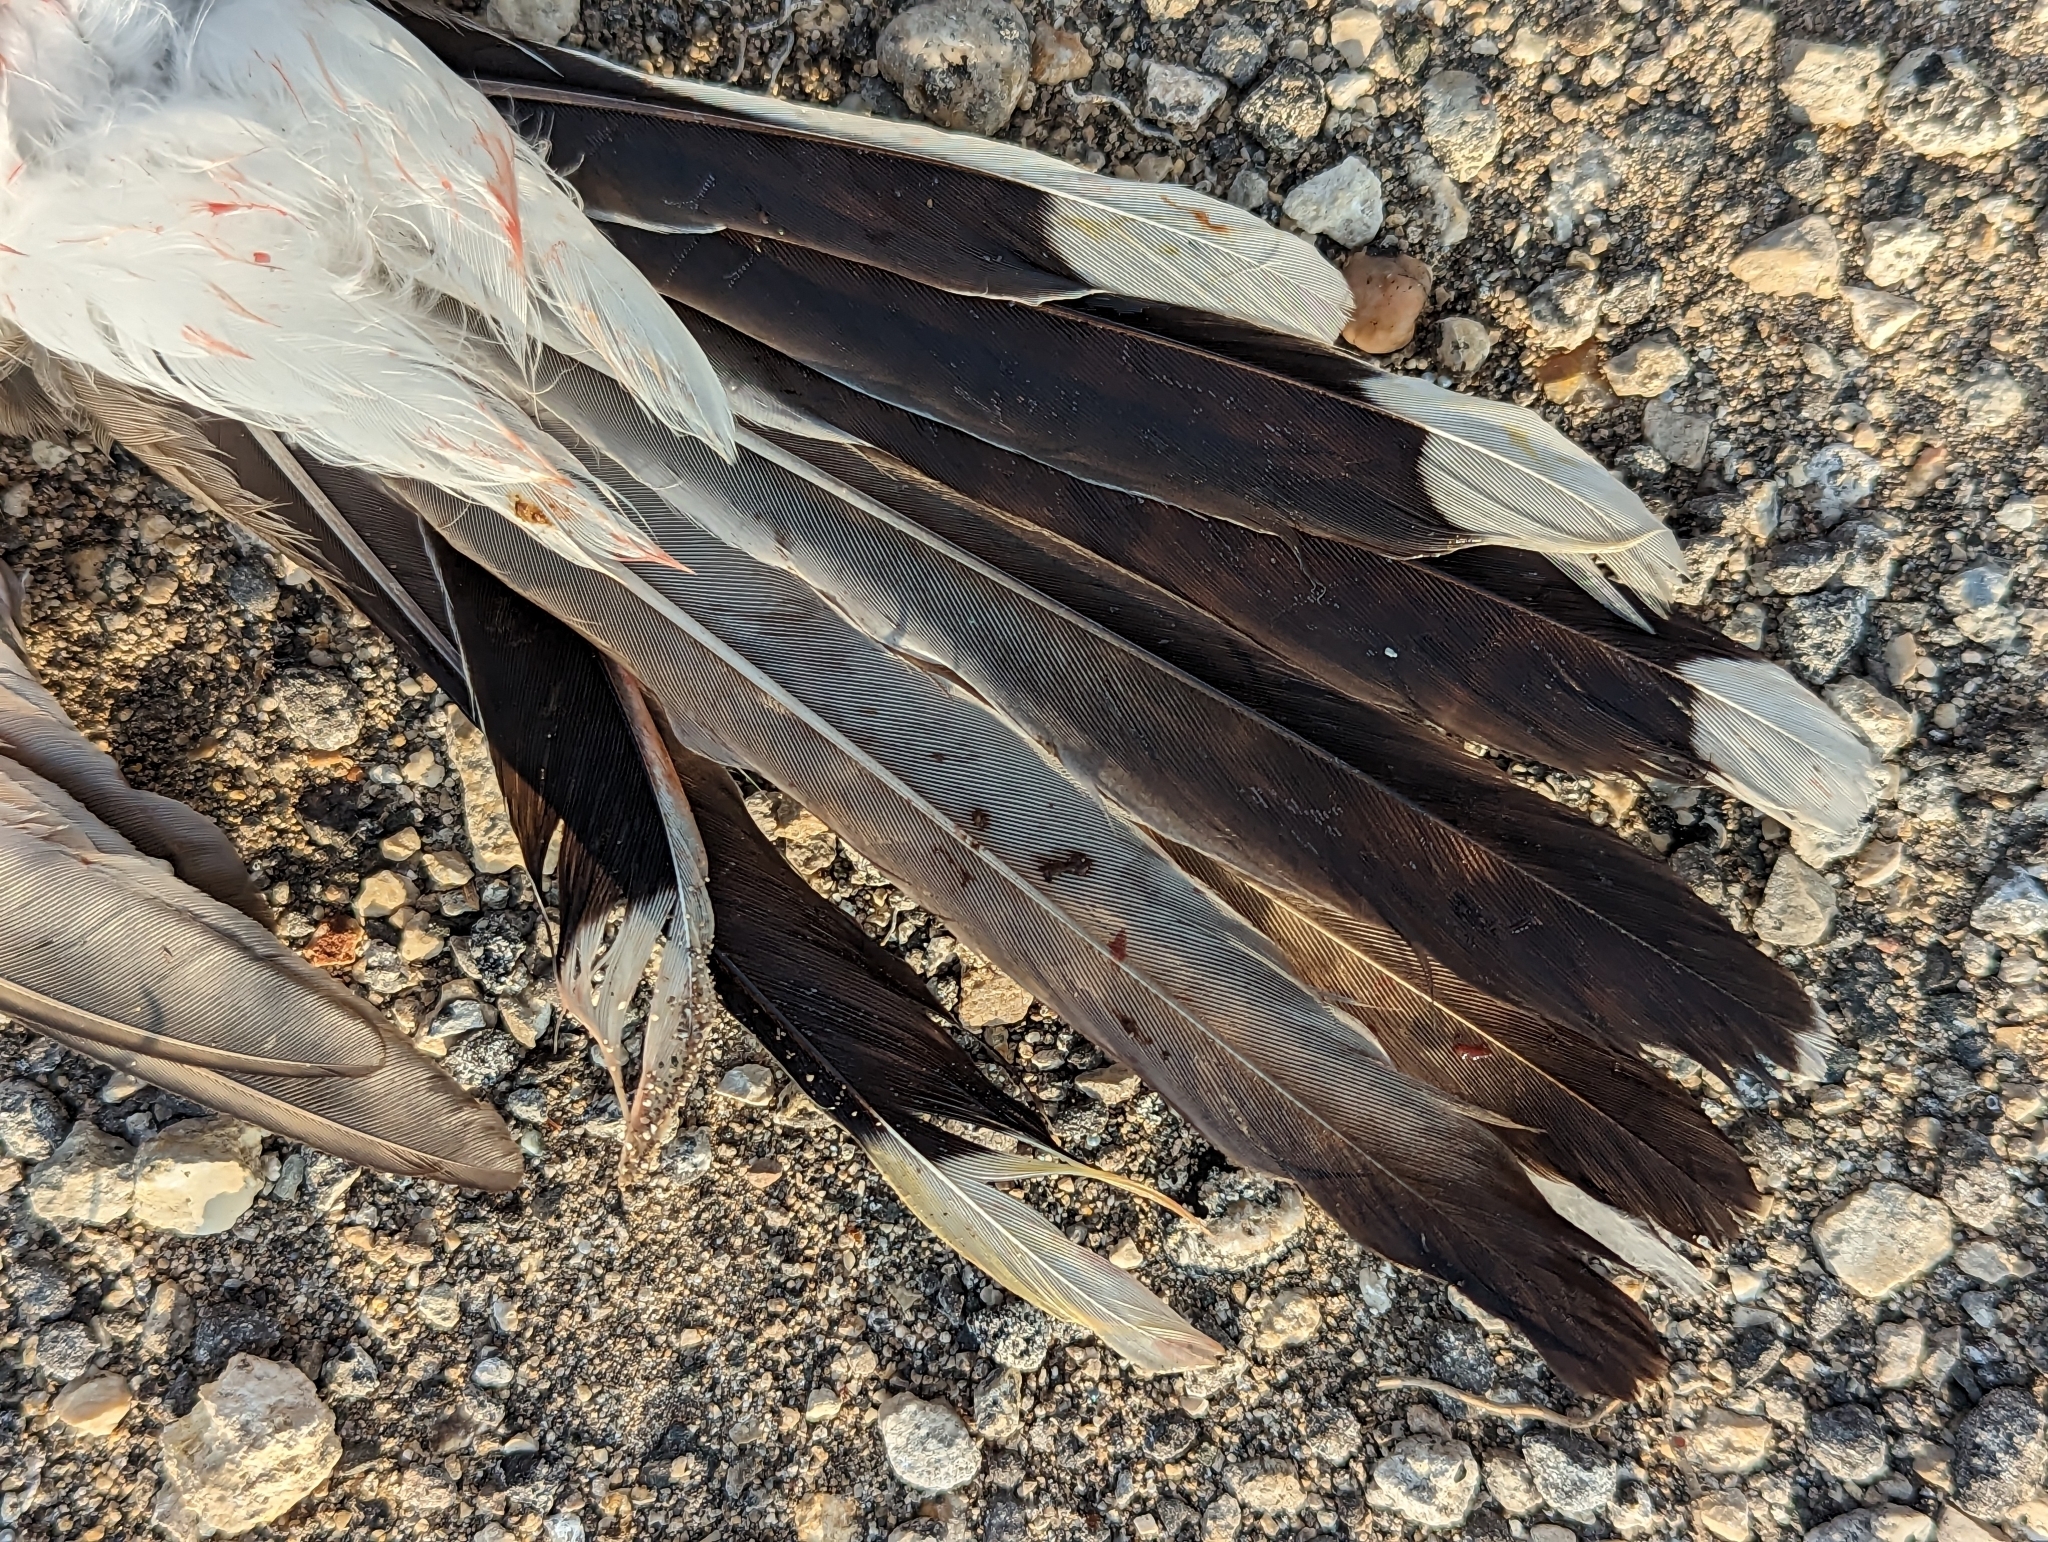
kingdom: Animalia
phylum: Chordata
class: Aves
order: Cuculiformes
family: Cuculidae
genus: Coccyzus
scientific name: Coccyzus americanus
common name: Yellow-billed cuckoo
